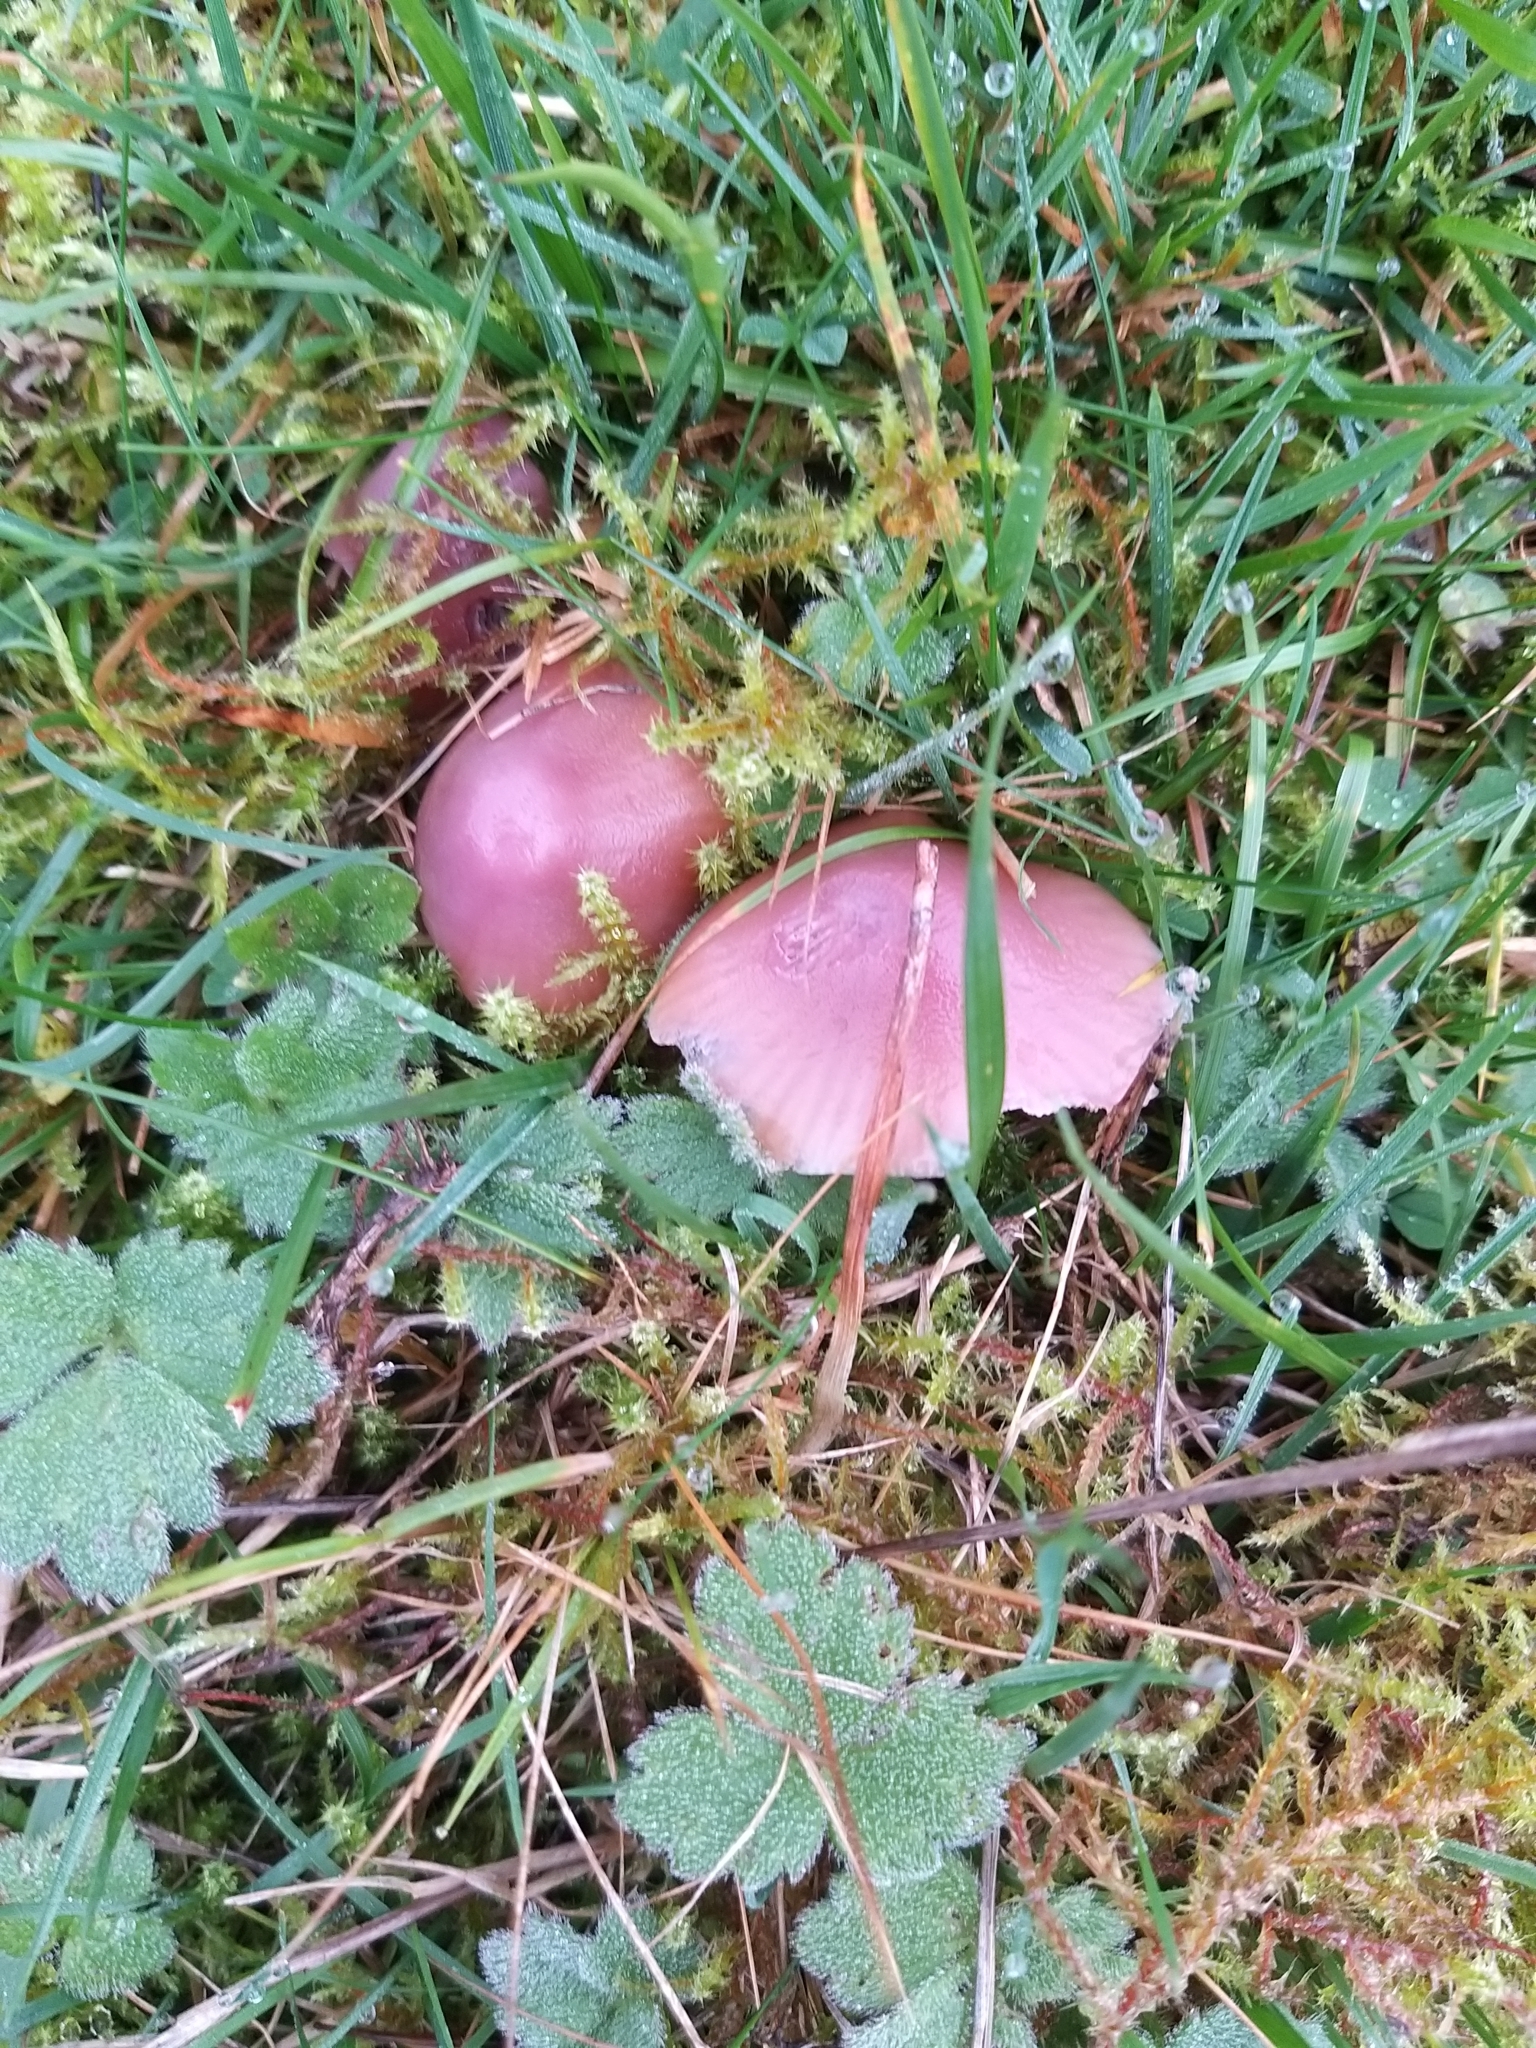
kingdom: Fungi
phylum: Basidiomycota
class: Agaricomycetes
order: Agaricales
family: Hygrophoraceae
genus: Gliophorus
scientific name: Gliophorus reginae
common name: Jubilee waxcap
